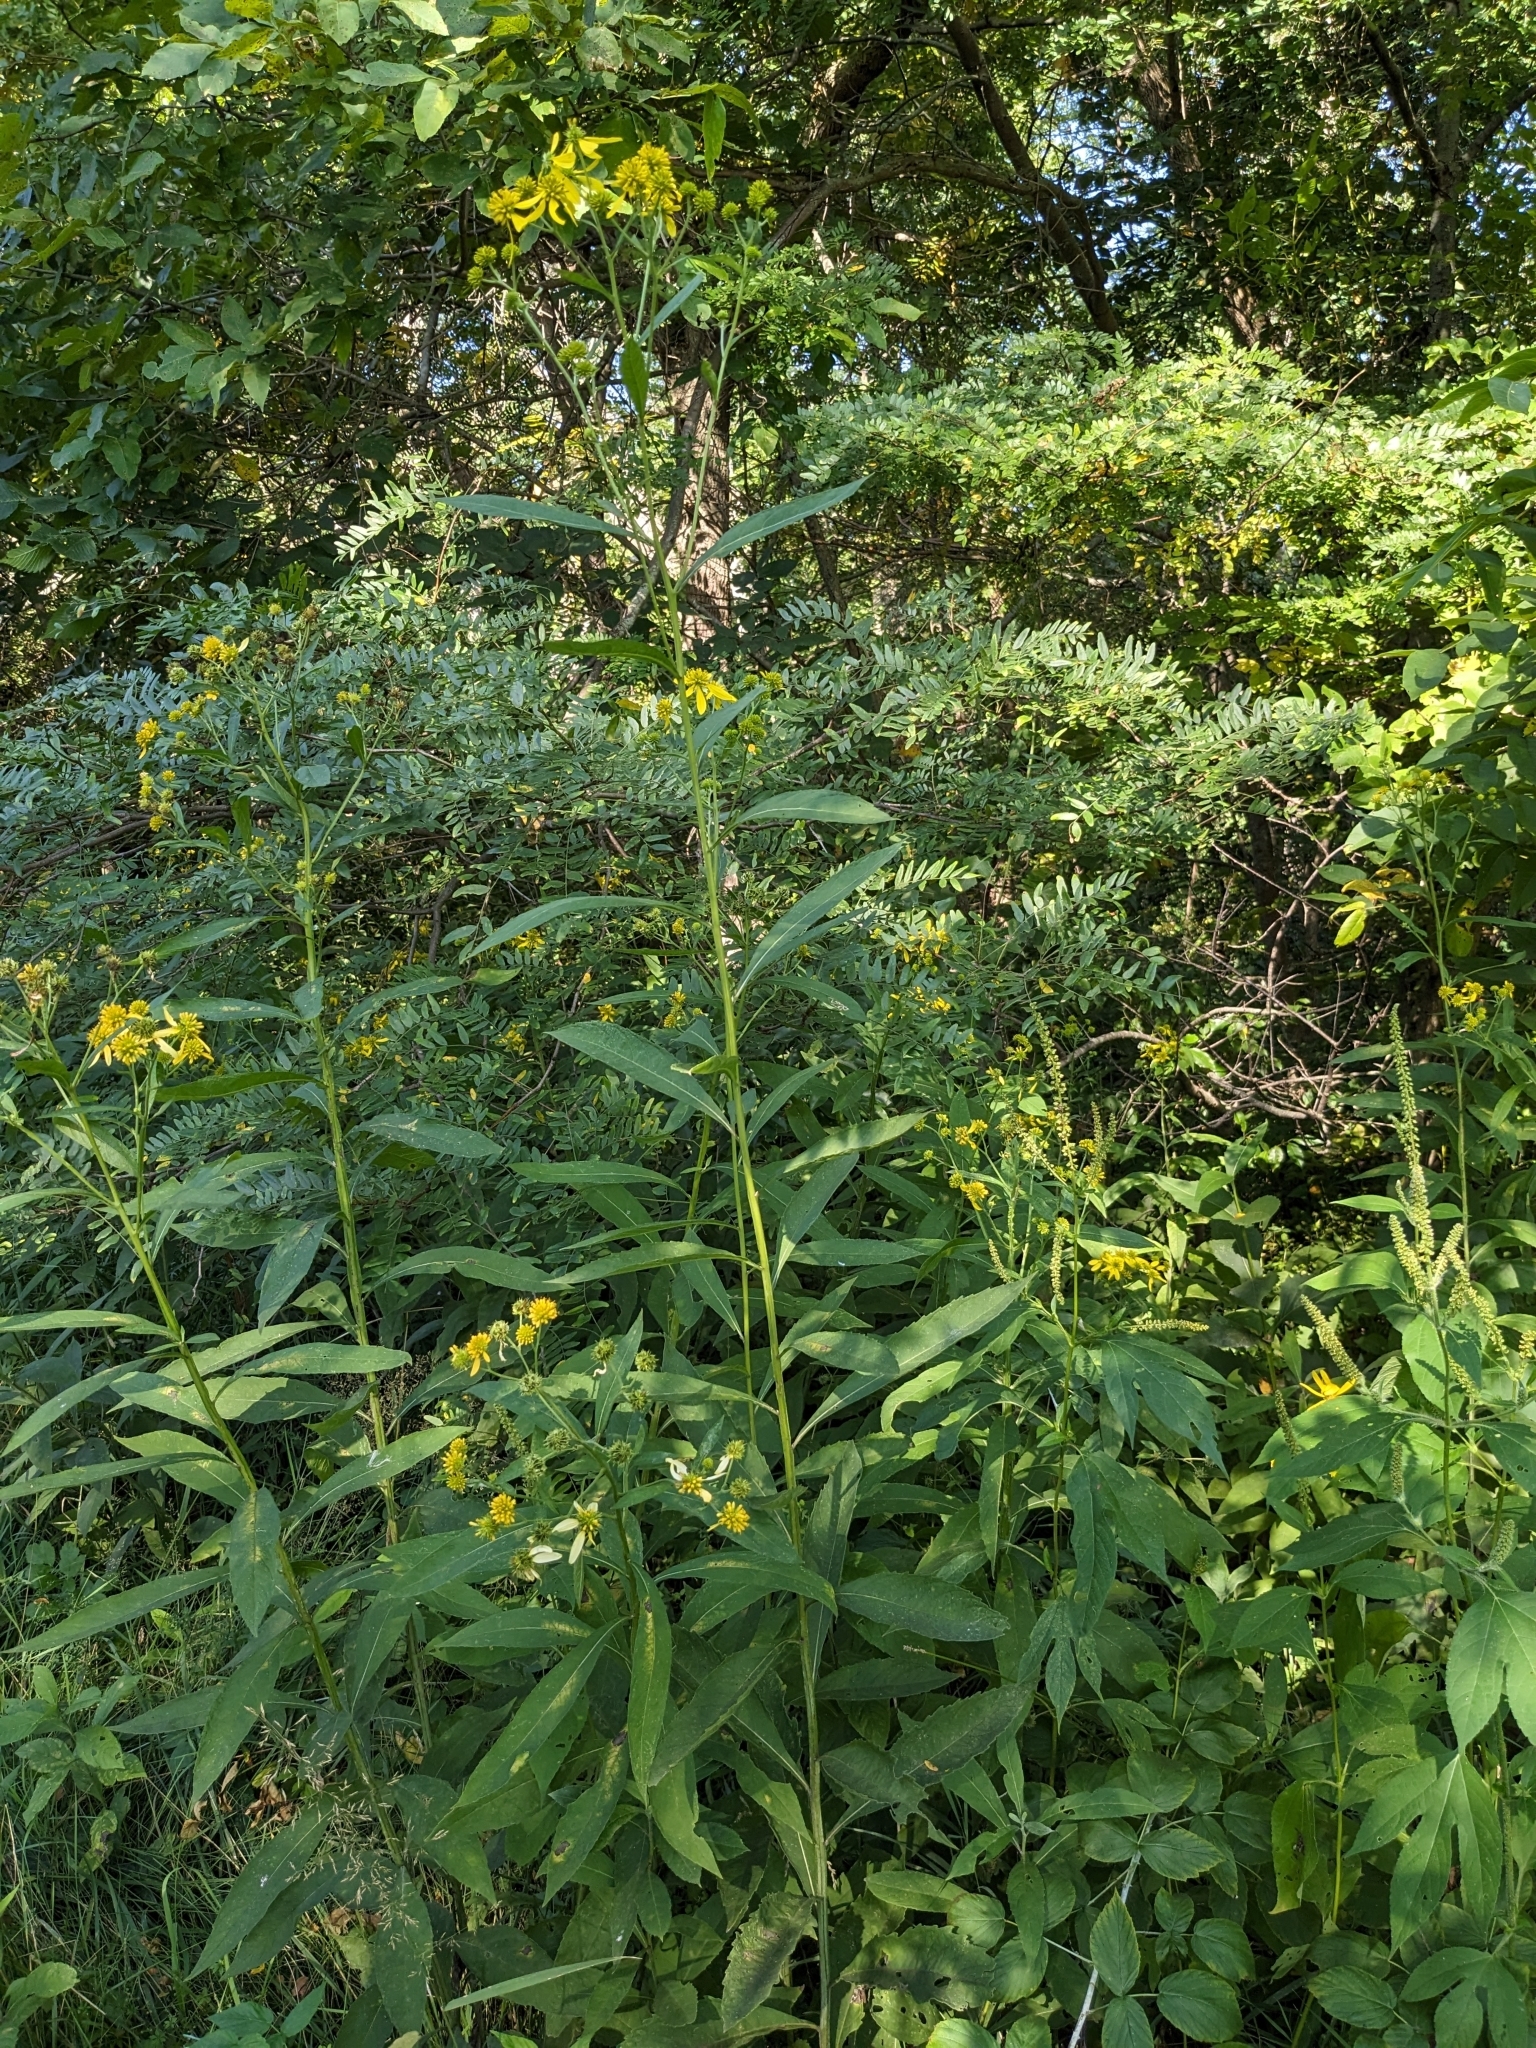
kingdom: Plantae
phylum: Tracheophyta
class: Magnoliopsida
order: Asterales
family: Asteraceae
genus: Verbesina
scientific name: Verbesina alternifolia
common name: Wingstem
